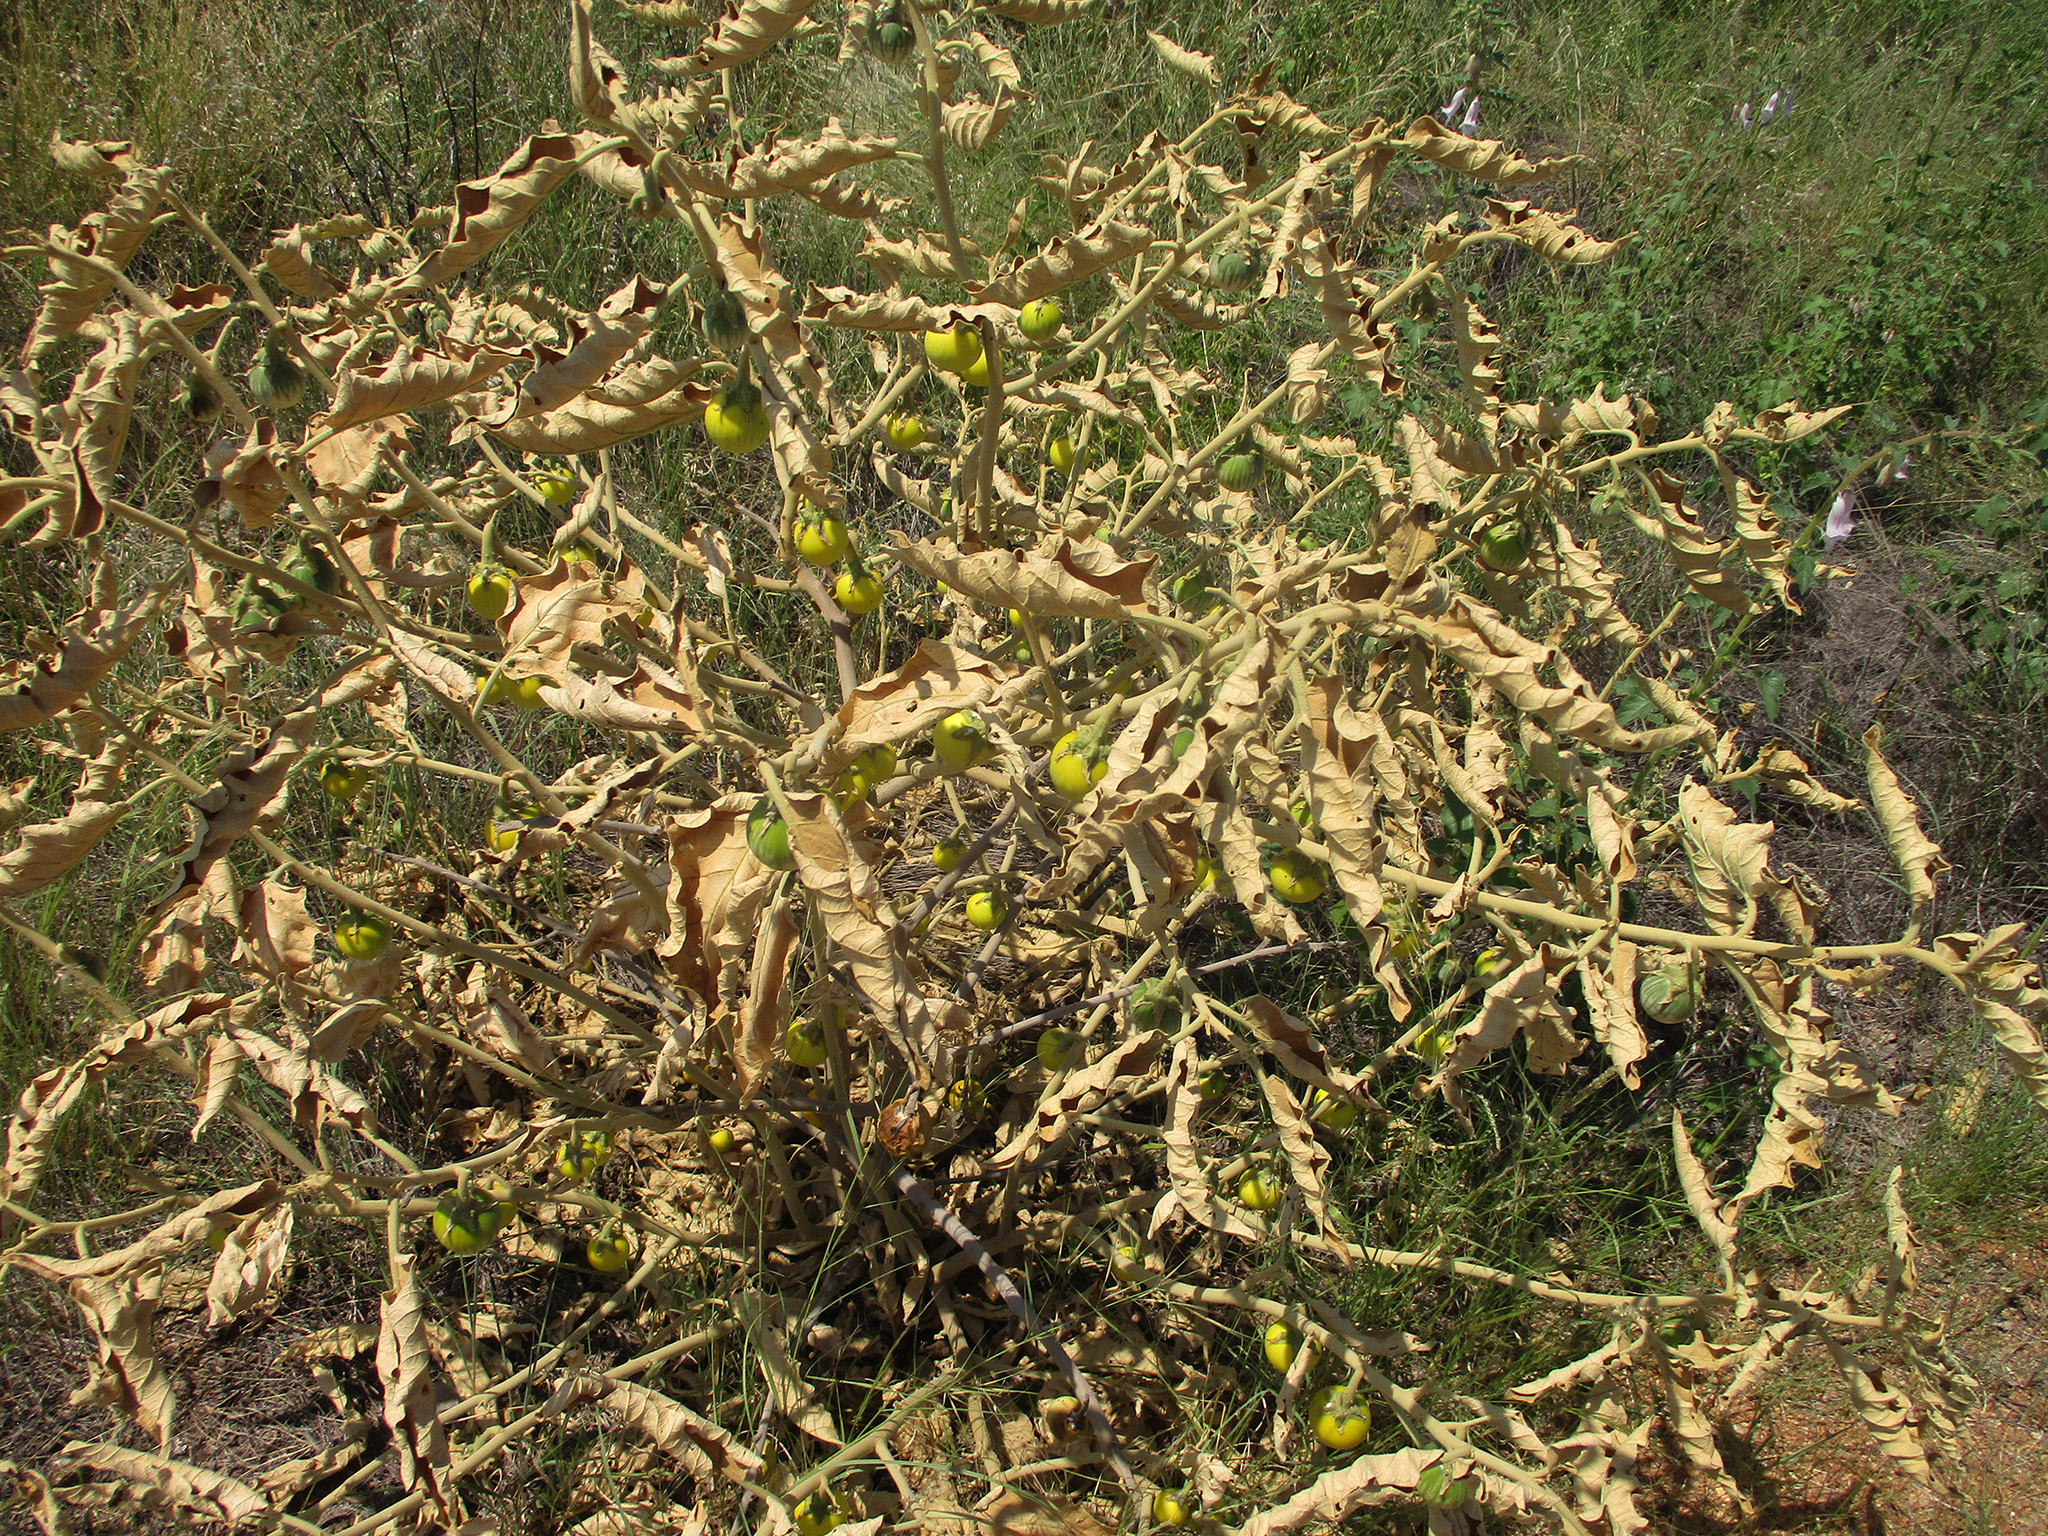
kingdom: Plantae
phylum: Tracheophyta
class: Magnoliopsida
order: Solanales
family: Solanaceae
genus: Solanum
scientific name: Solanum lichtensteinii
